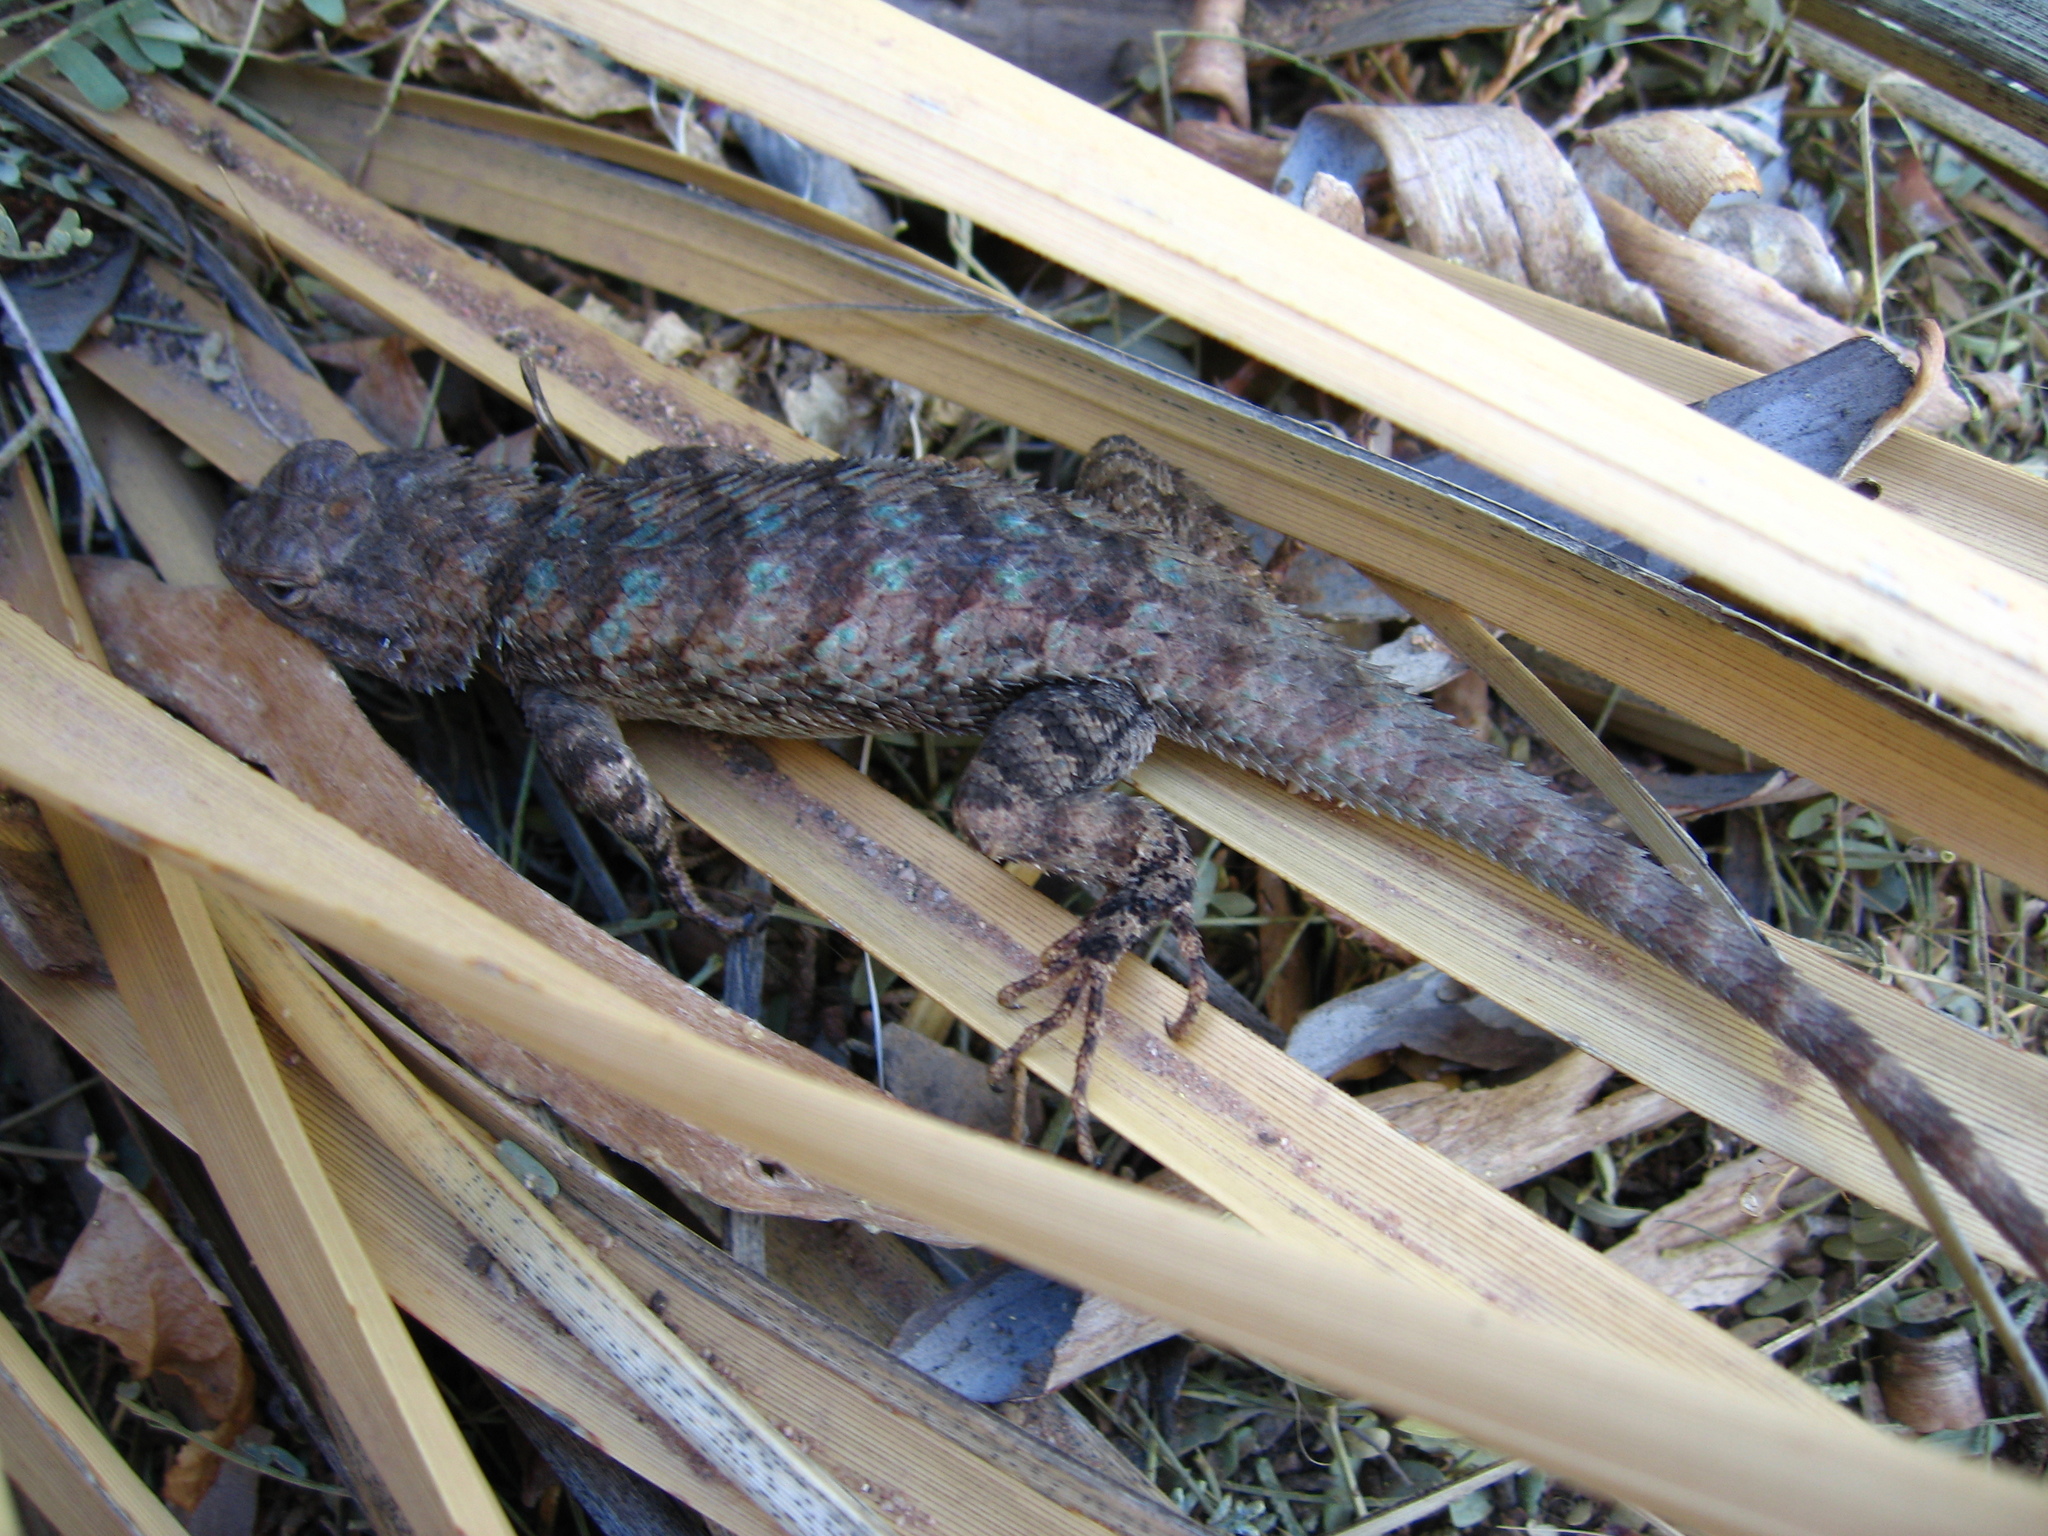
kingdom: Animalia
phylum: Chordata
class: Squamata
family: Phrynosomatidae
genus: Sceloporus
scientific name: Sceloporus clarkii
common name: Clark's spiny lizard
